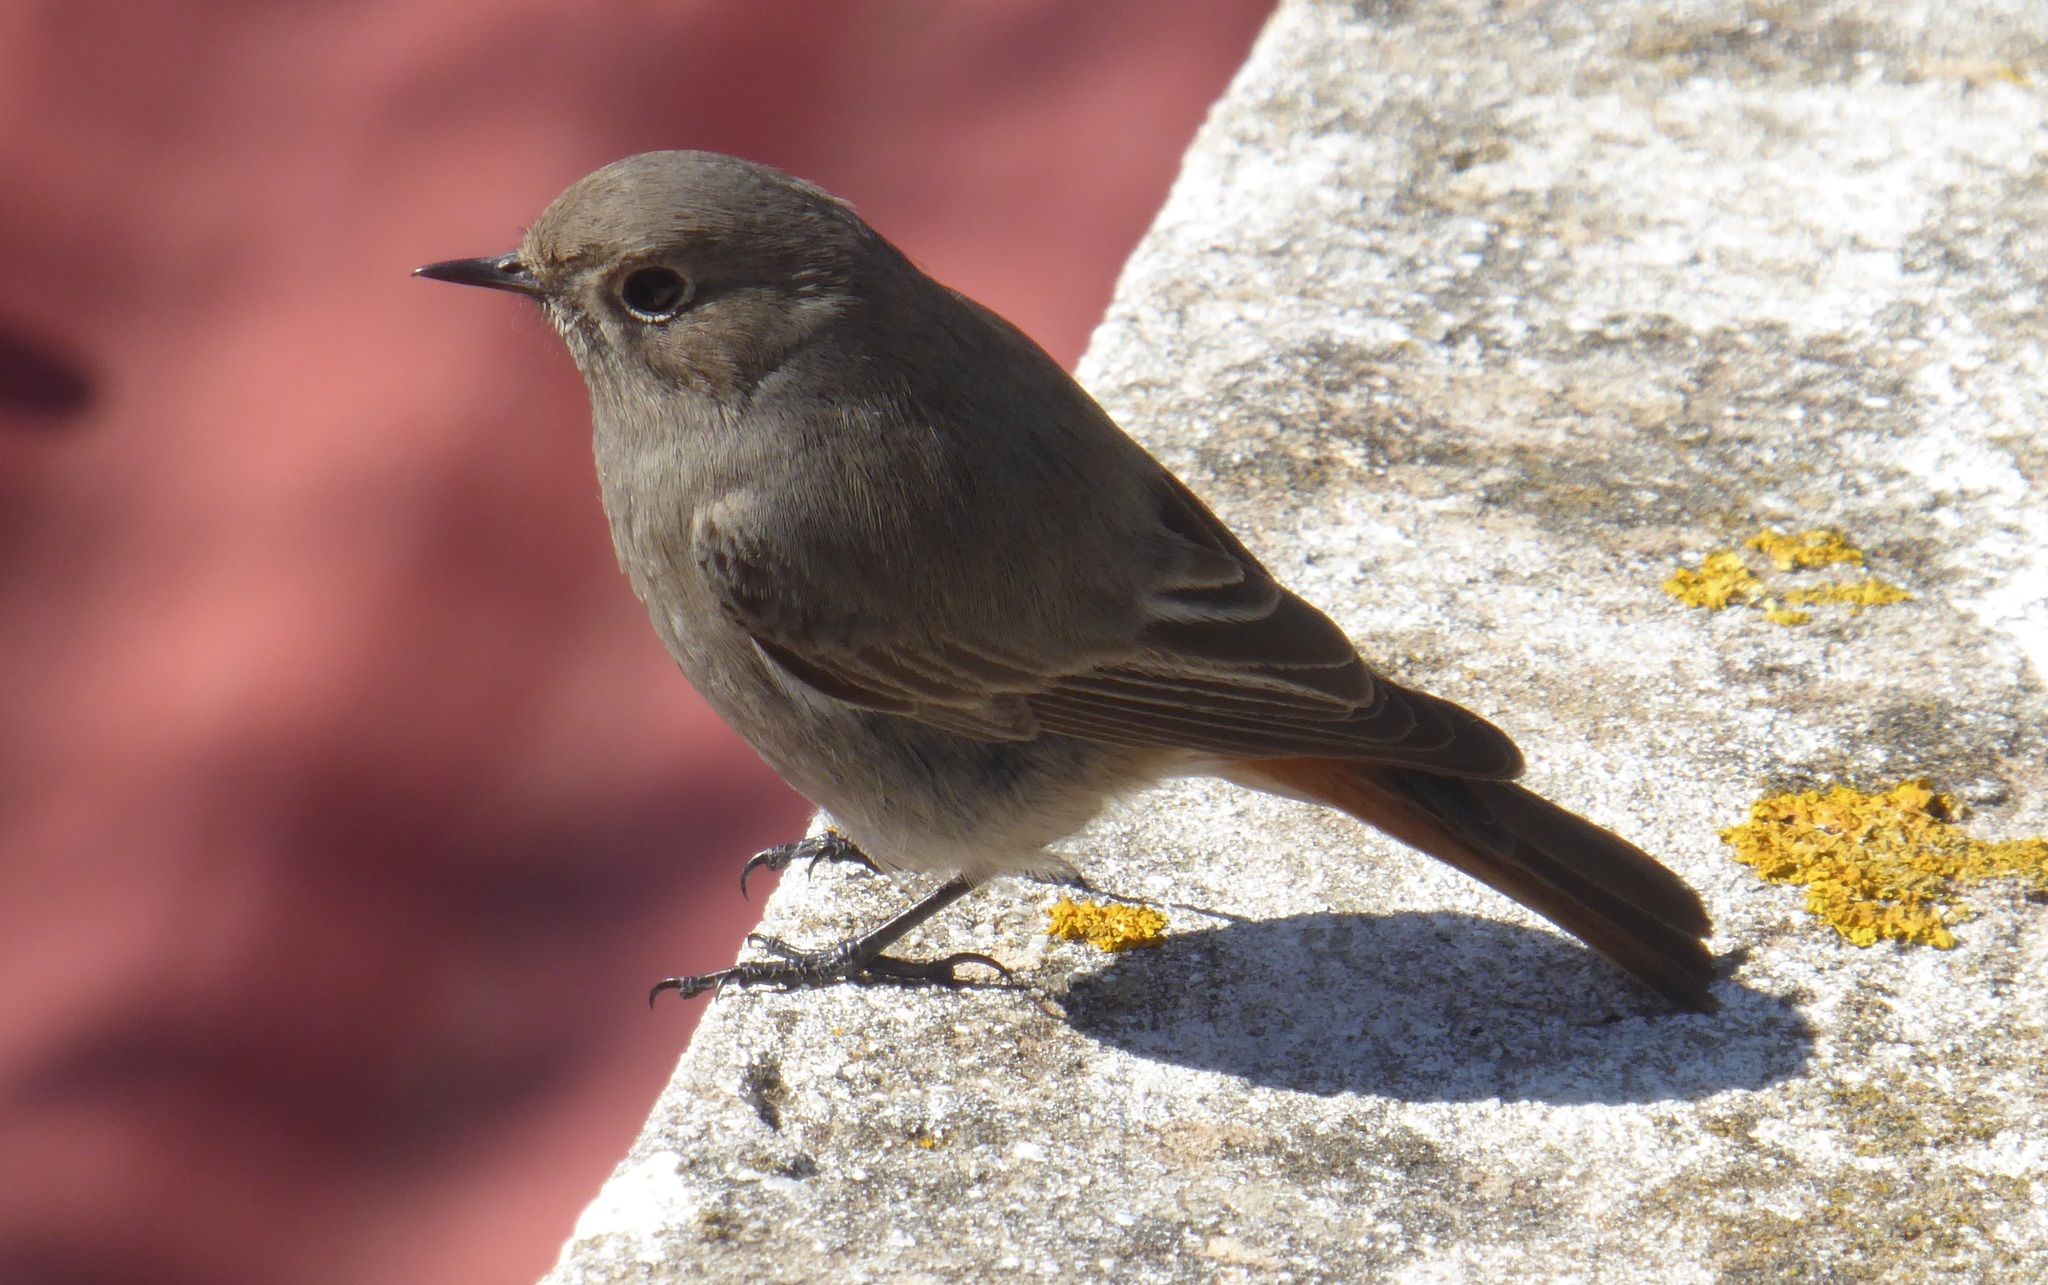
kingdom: Animalia
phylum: Chordata
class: Aves
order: Passeriformes
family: Muscicapidae
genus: Phoenicurus
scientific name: Phoenicurus ochruros
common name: Black redstart
